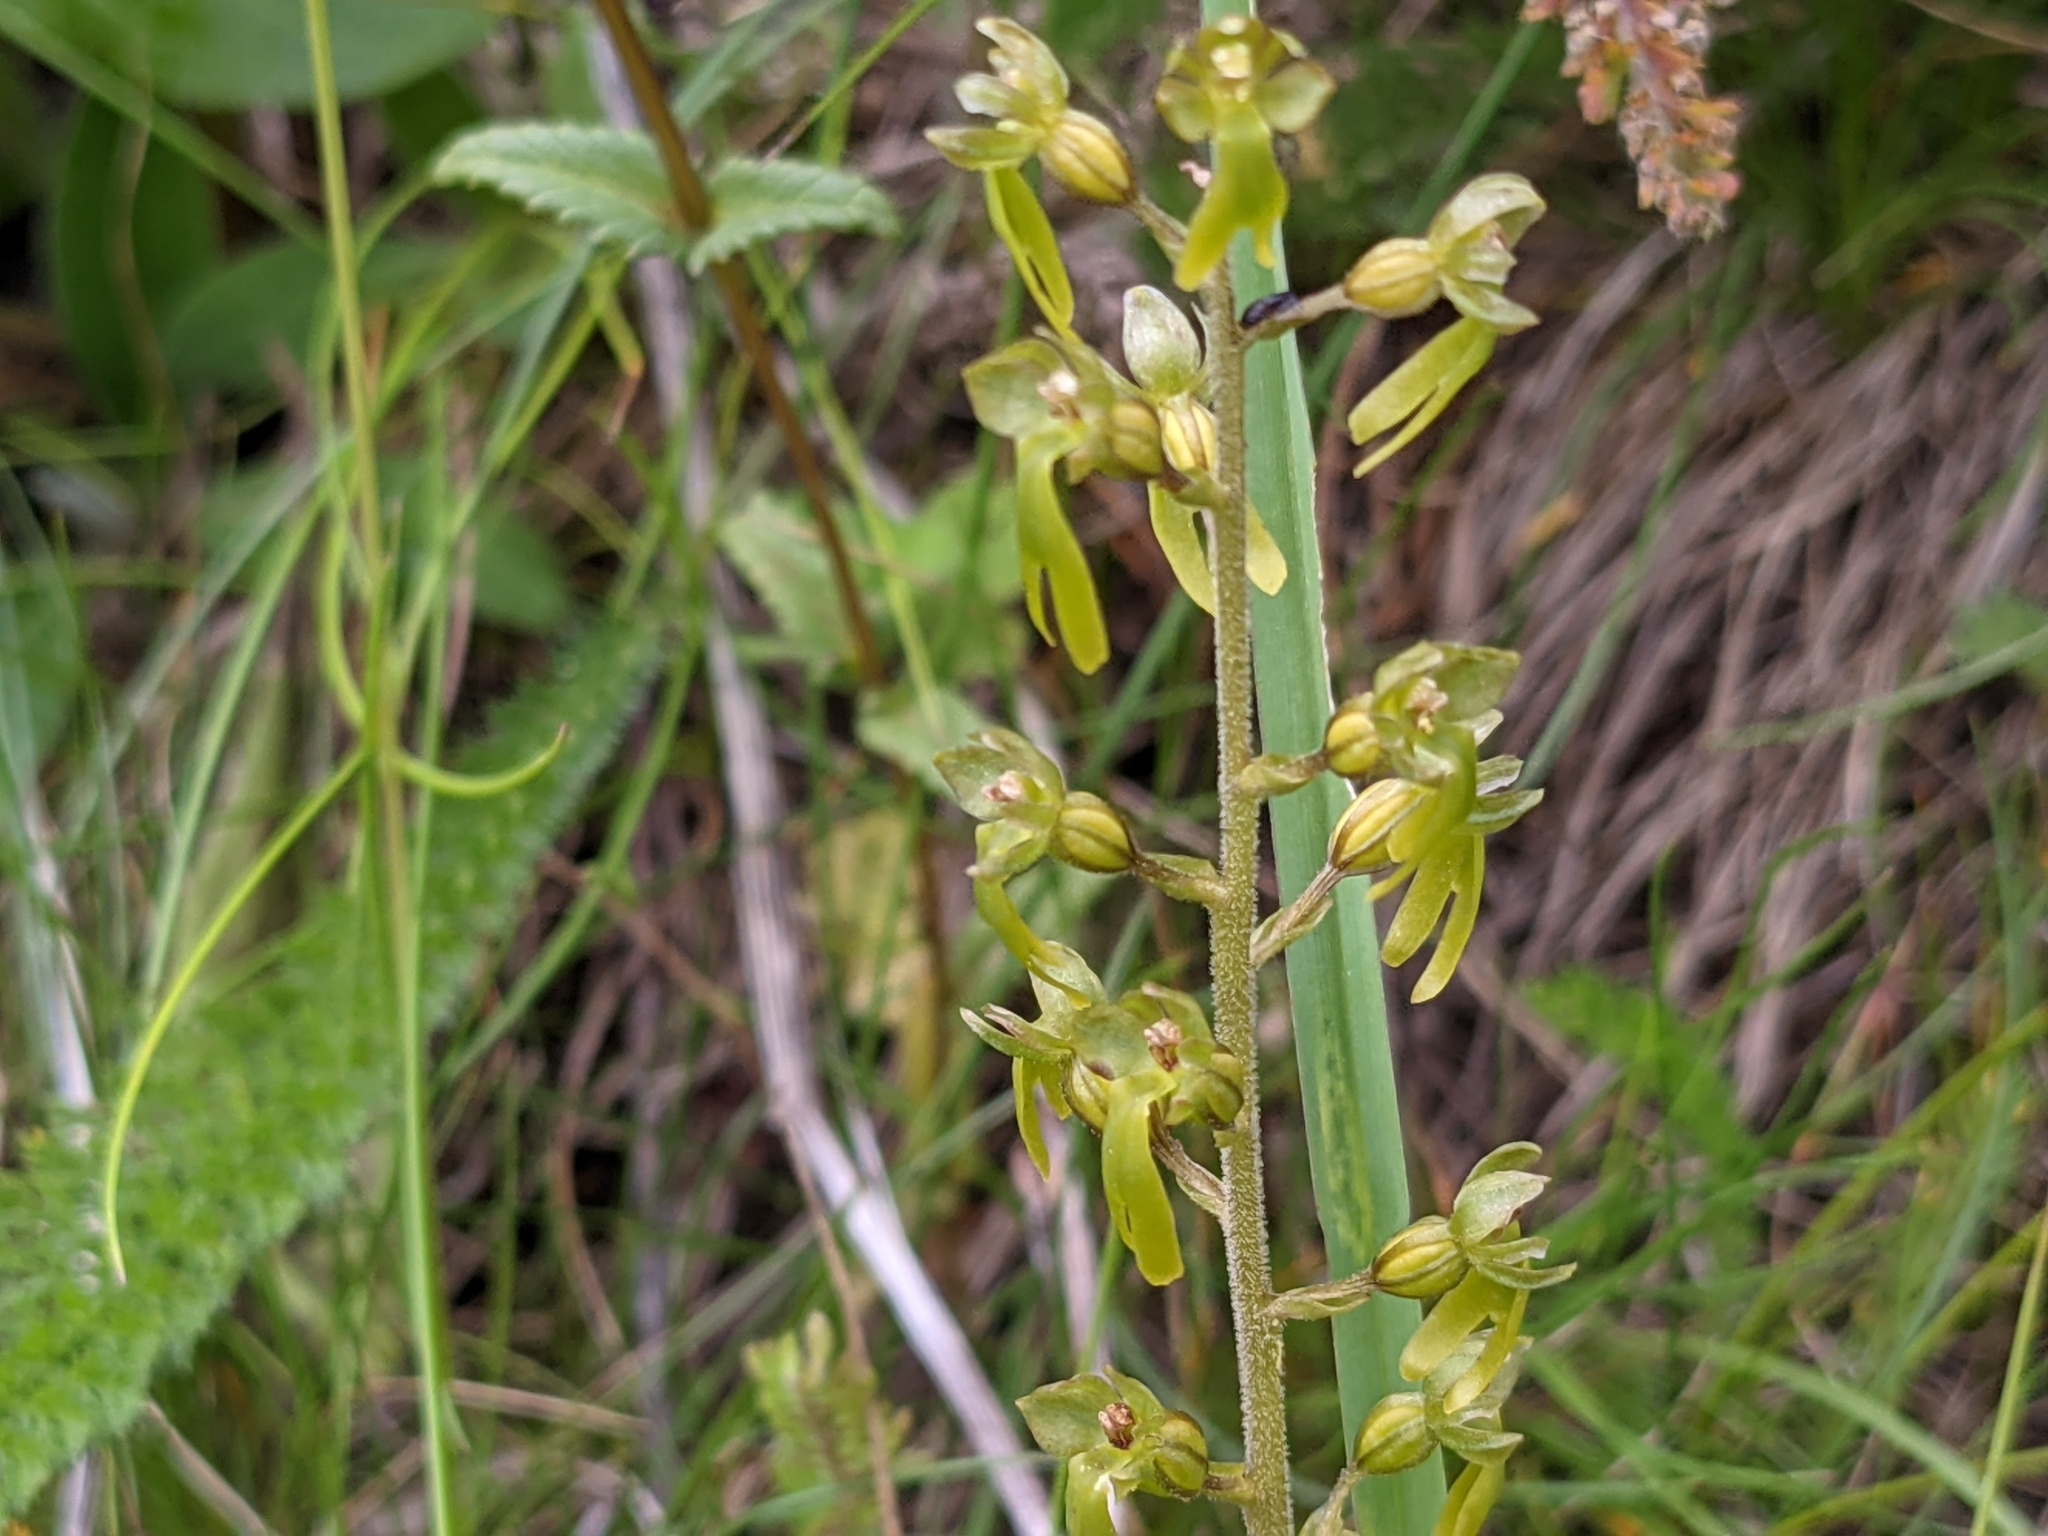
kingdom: Plantae
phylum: Tracheophyta
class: Liliopsida
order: Asparagales
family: Orchidaceae
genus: Neottia
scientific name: Neottia ovata
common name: Common twayblade
